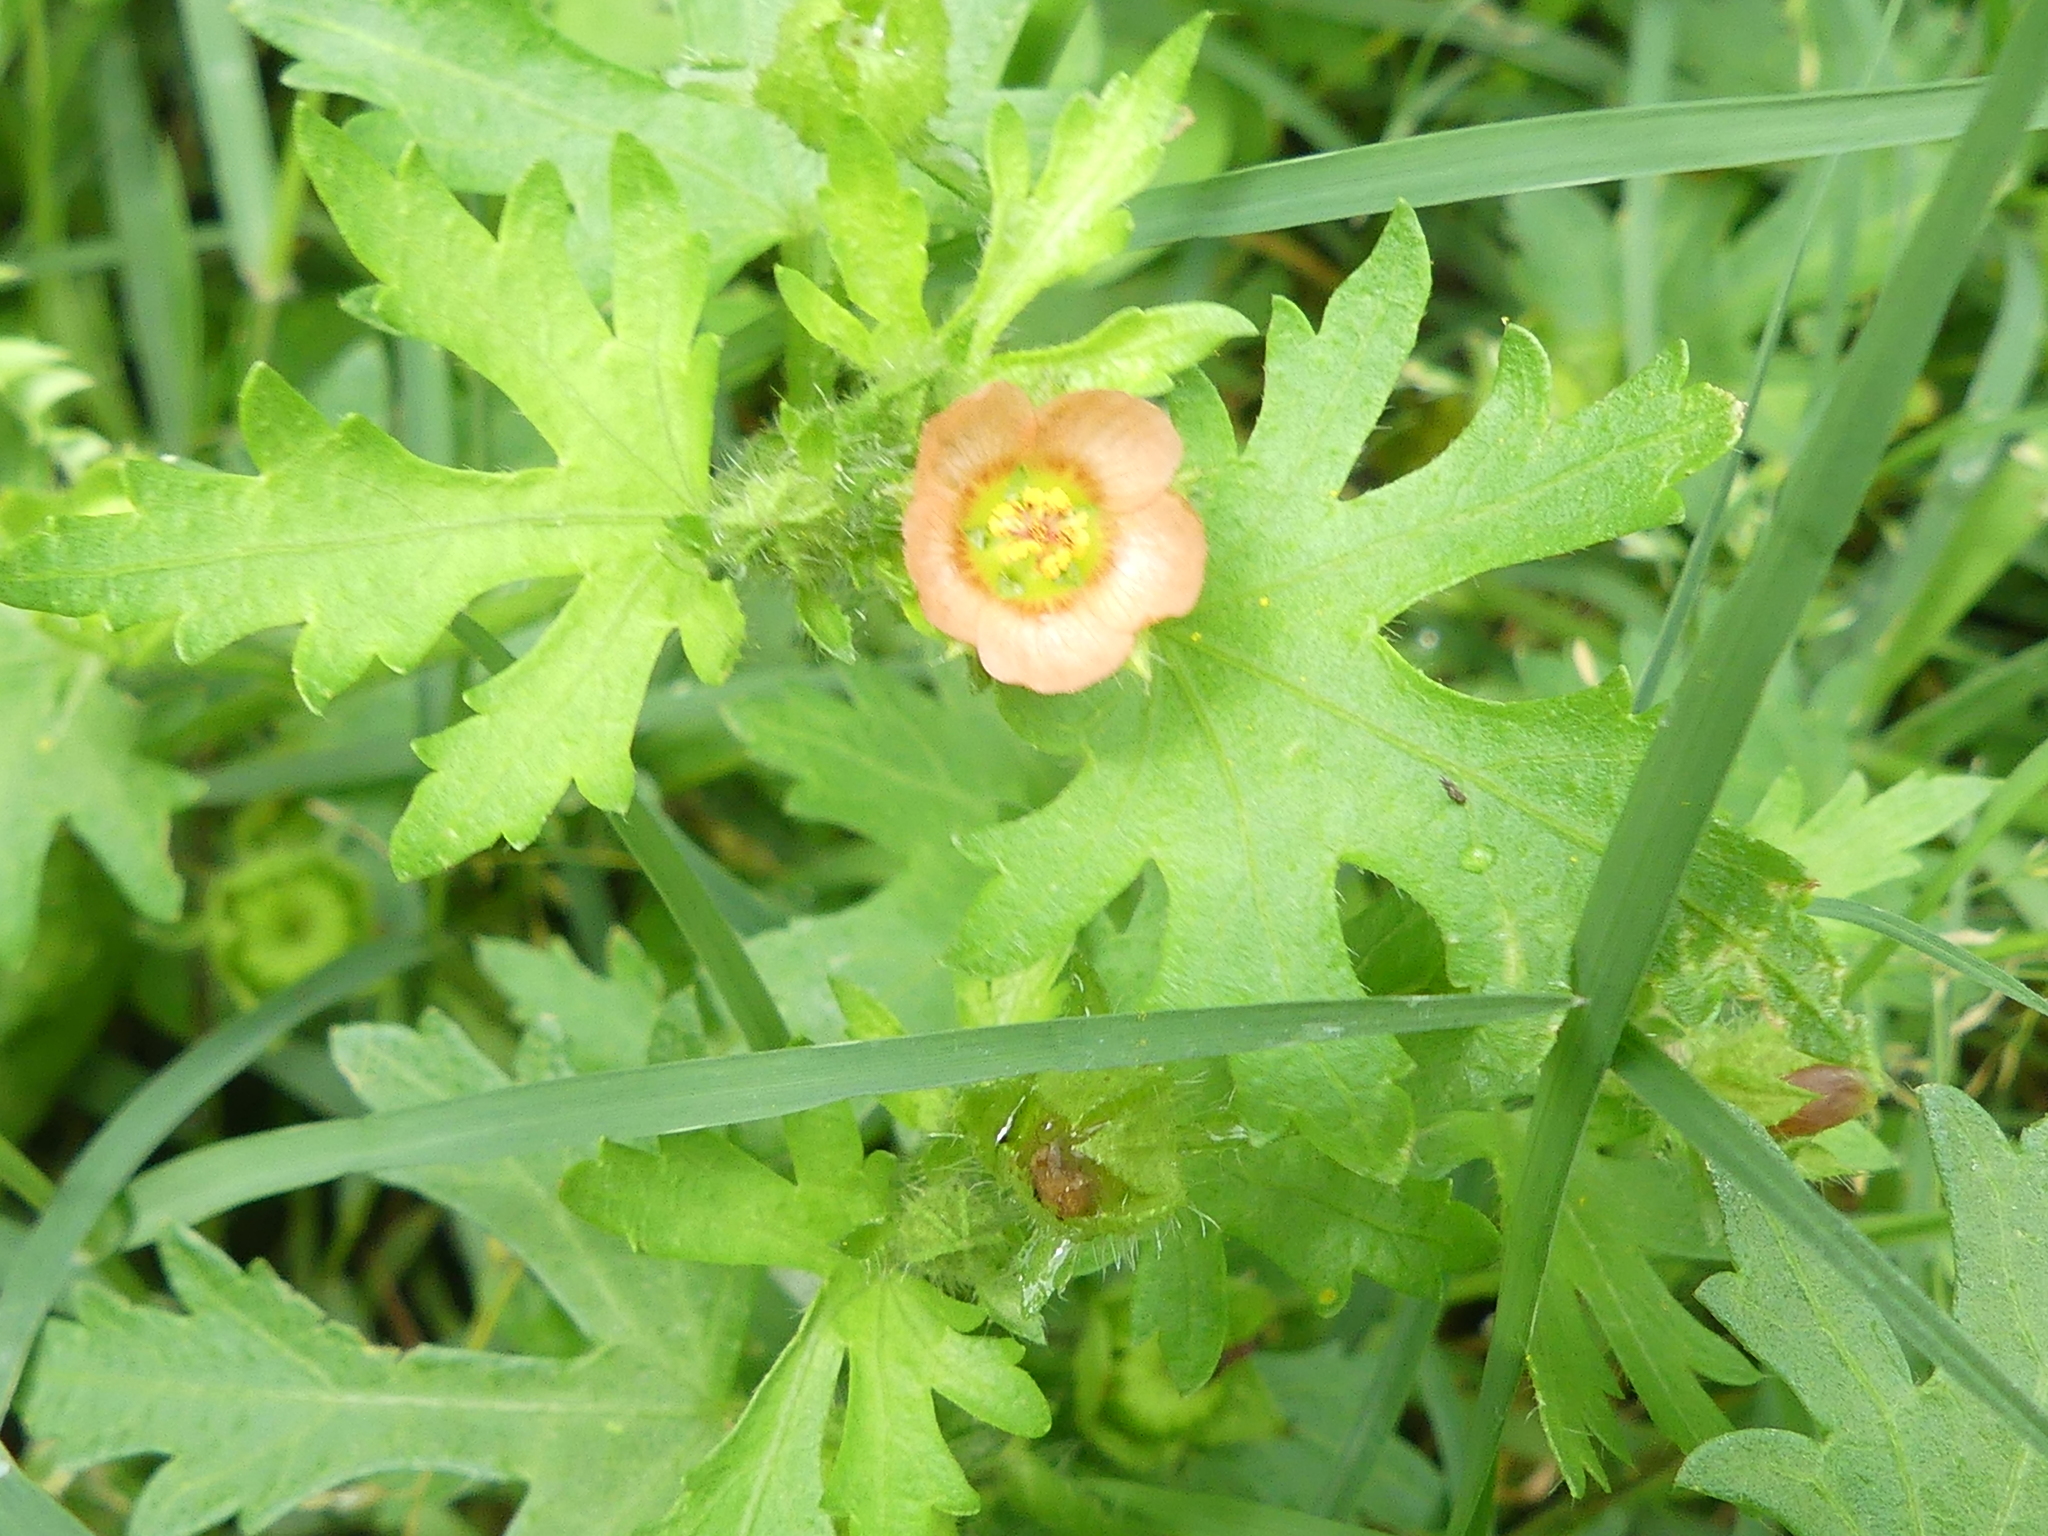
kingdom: Plantae
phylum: Tracheophyta
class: Magnoliopsida
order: Malvales
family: Malvaceae
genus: Modiola
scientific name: Modiola caroliniana
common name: Carolina bristlemallow
